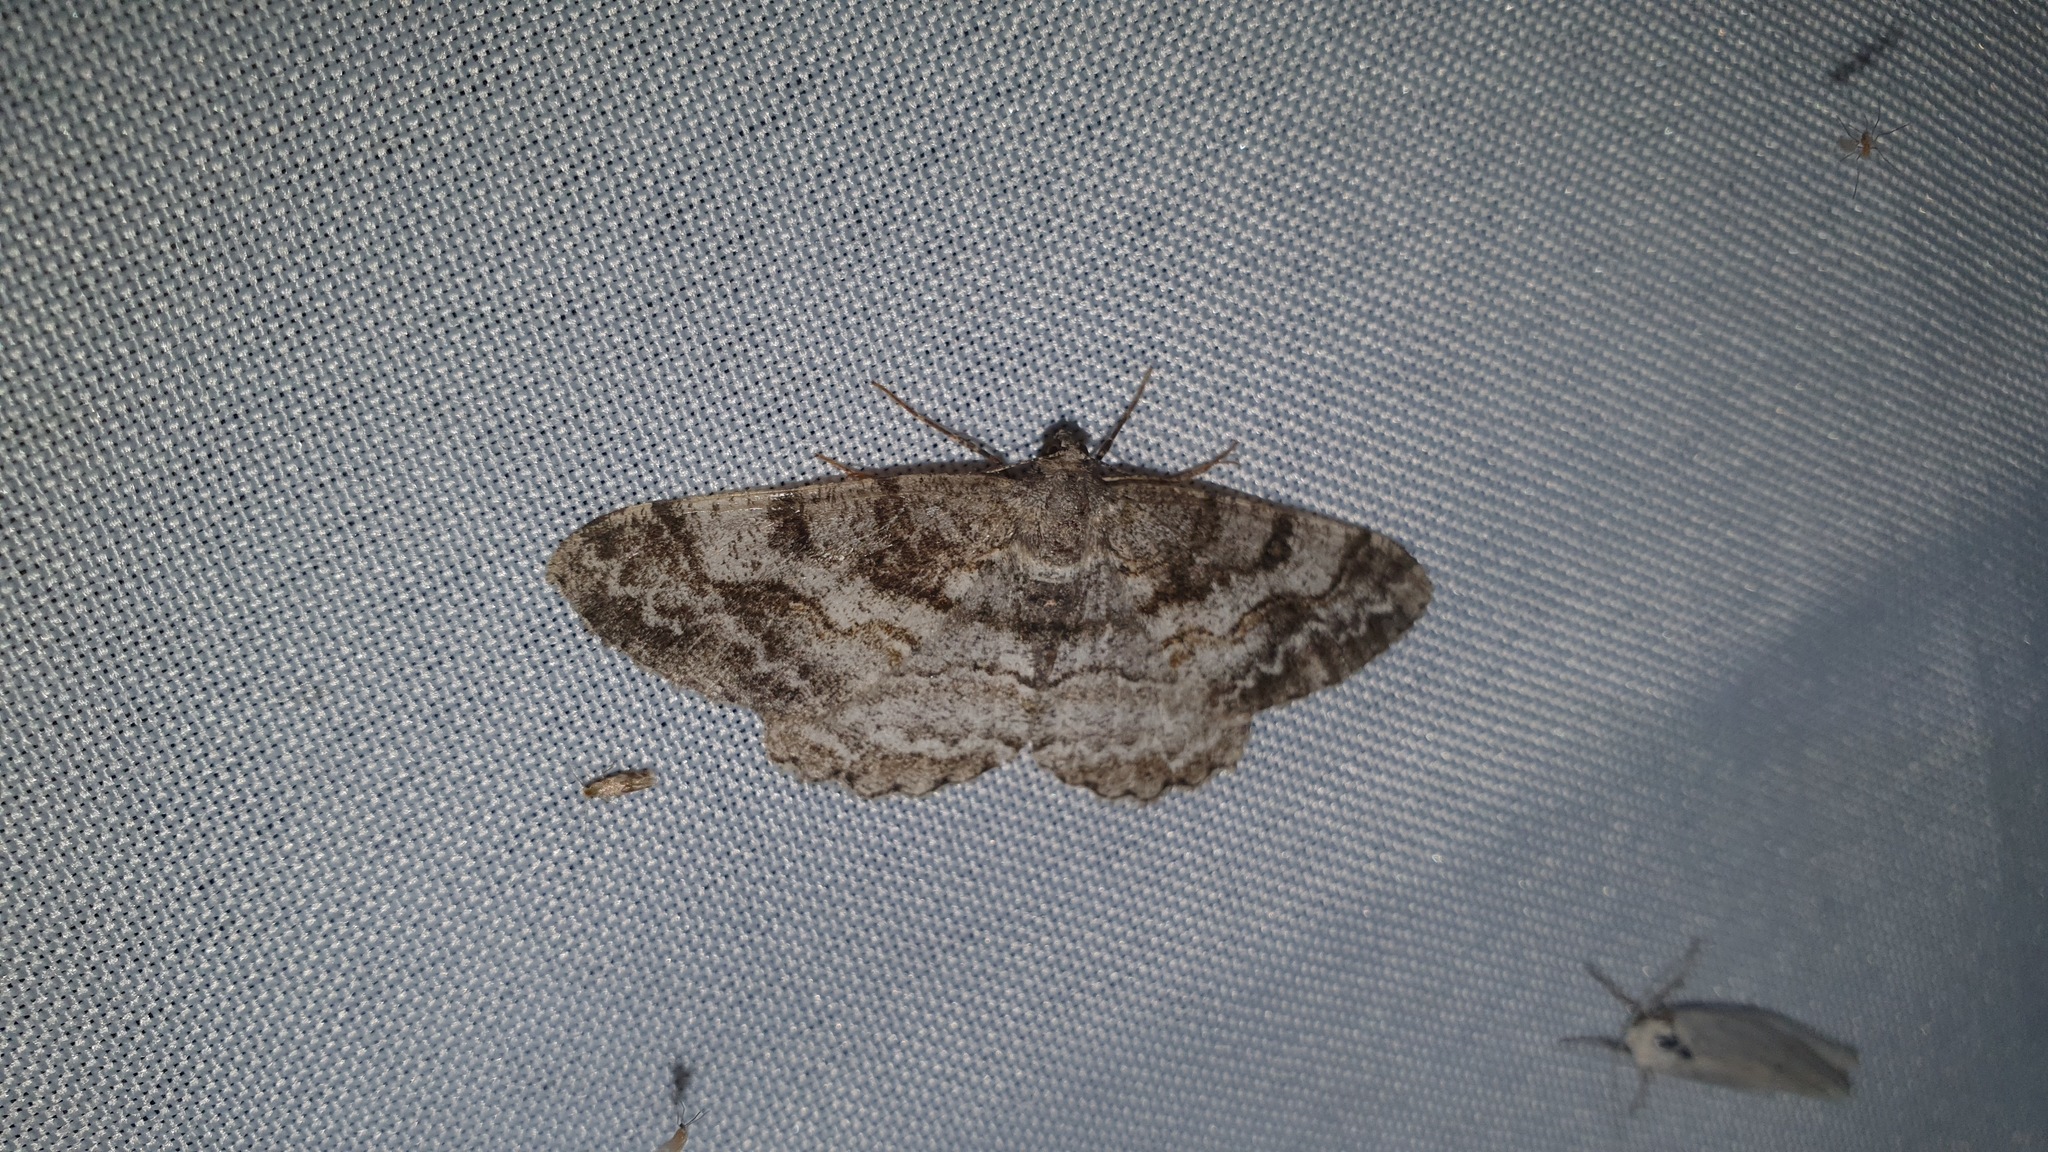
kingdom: Animalia
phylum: Arthropoda
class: Insecta
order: Lepidoptera
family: Geometridae
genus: Alcis
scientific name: Alcis repandata
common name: Mottled beauty
